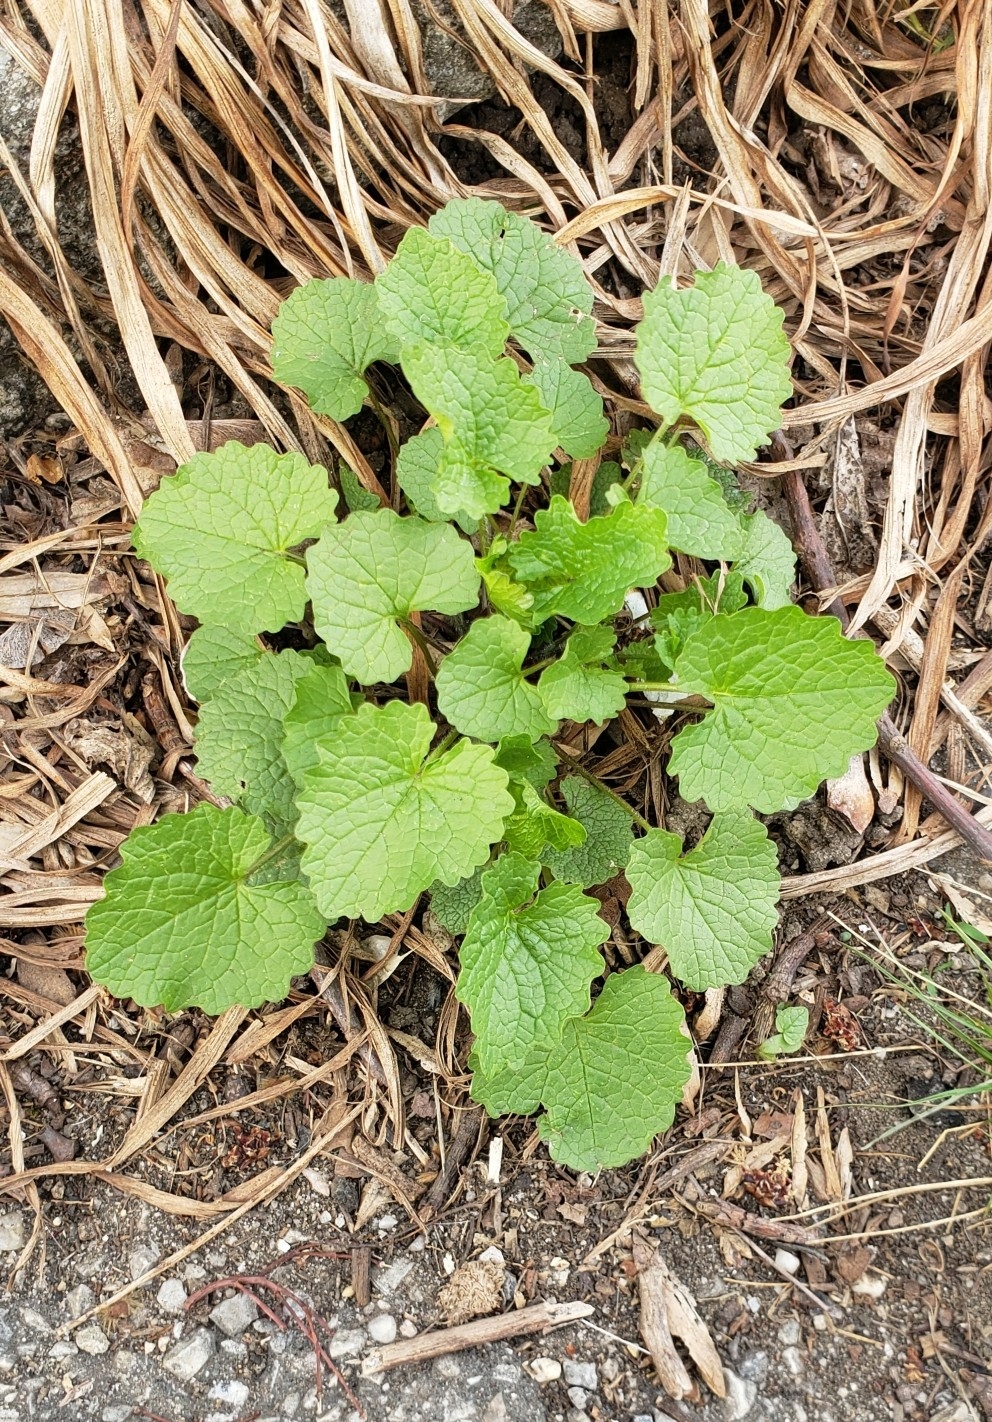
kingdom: Plantae
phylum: Tracheophyta
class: Magnoliopsida
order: Brassicales
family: Brassicaceae
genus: Alliaria
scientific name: Alliaria petiolata
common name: Garlic mustard
